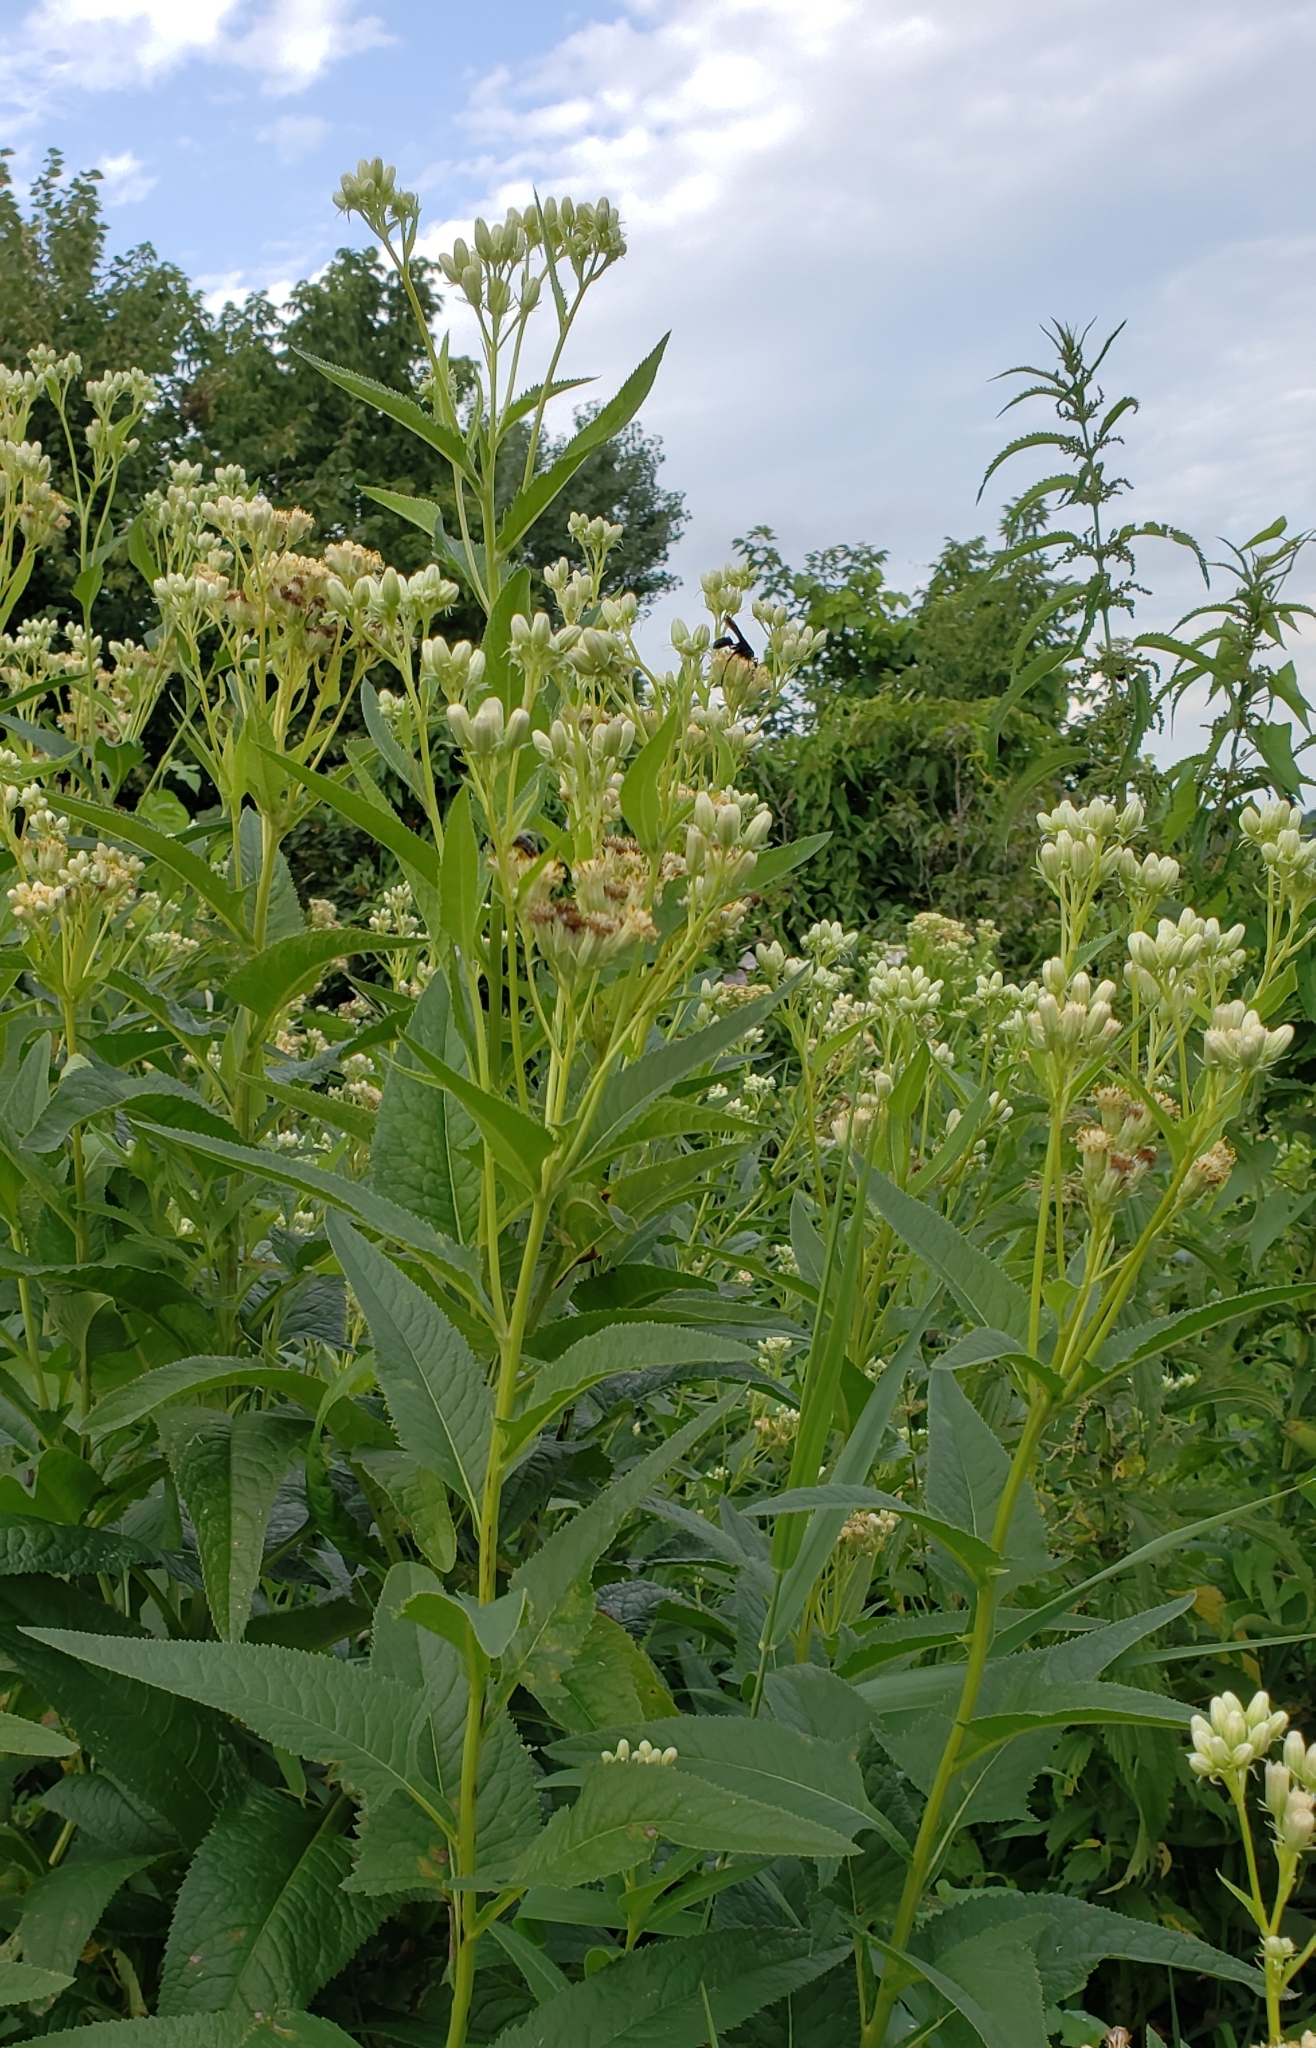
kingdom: Plantae
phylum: Tracheophyta
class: Magnoliopsida
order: Asterales
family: Asteraceae
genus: Hasteola
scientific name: Hasteola suaveolens
